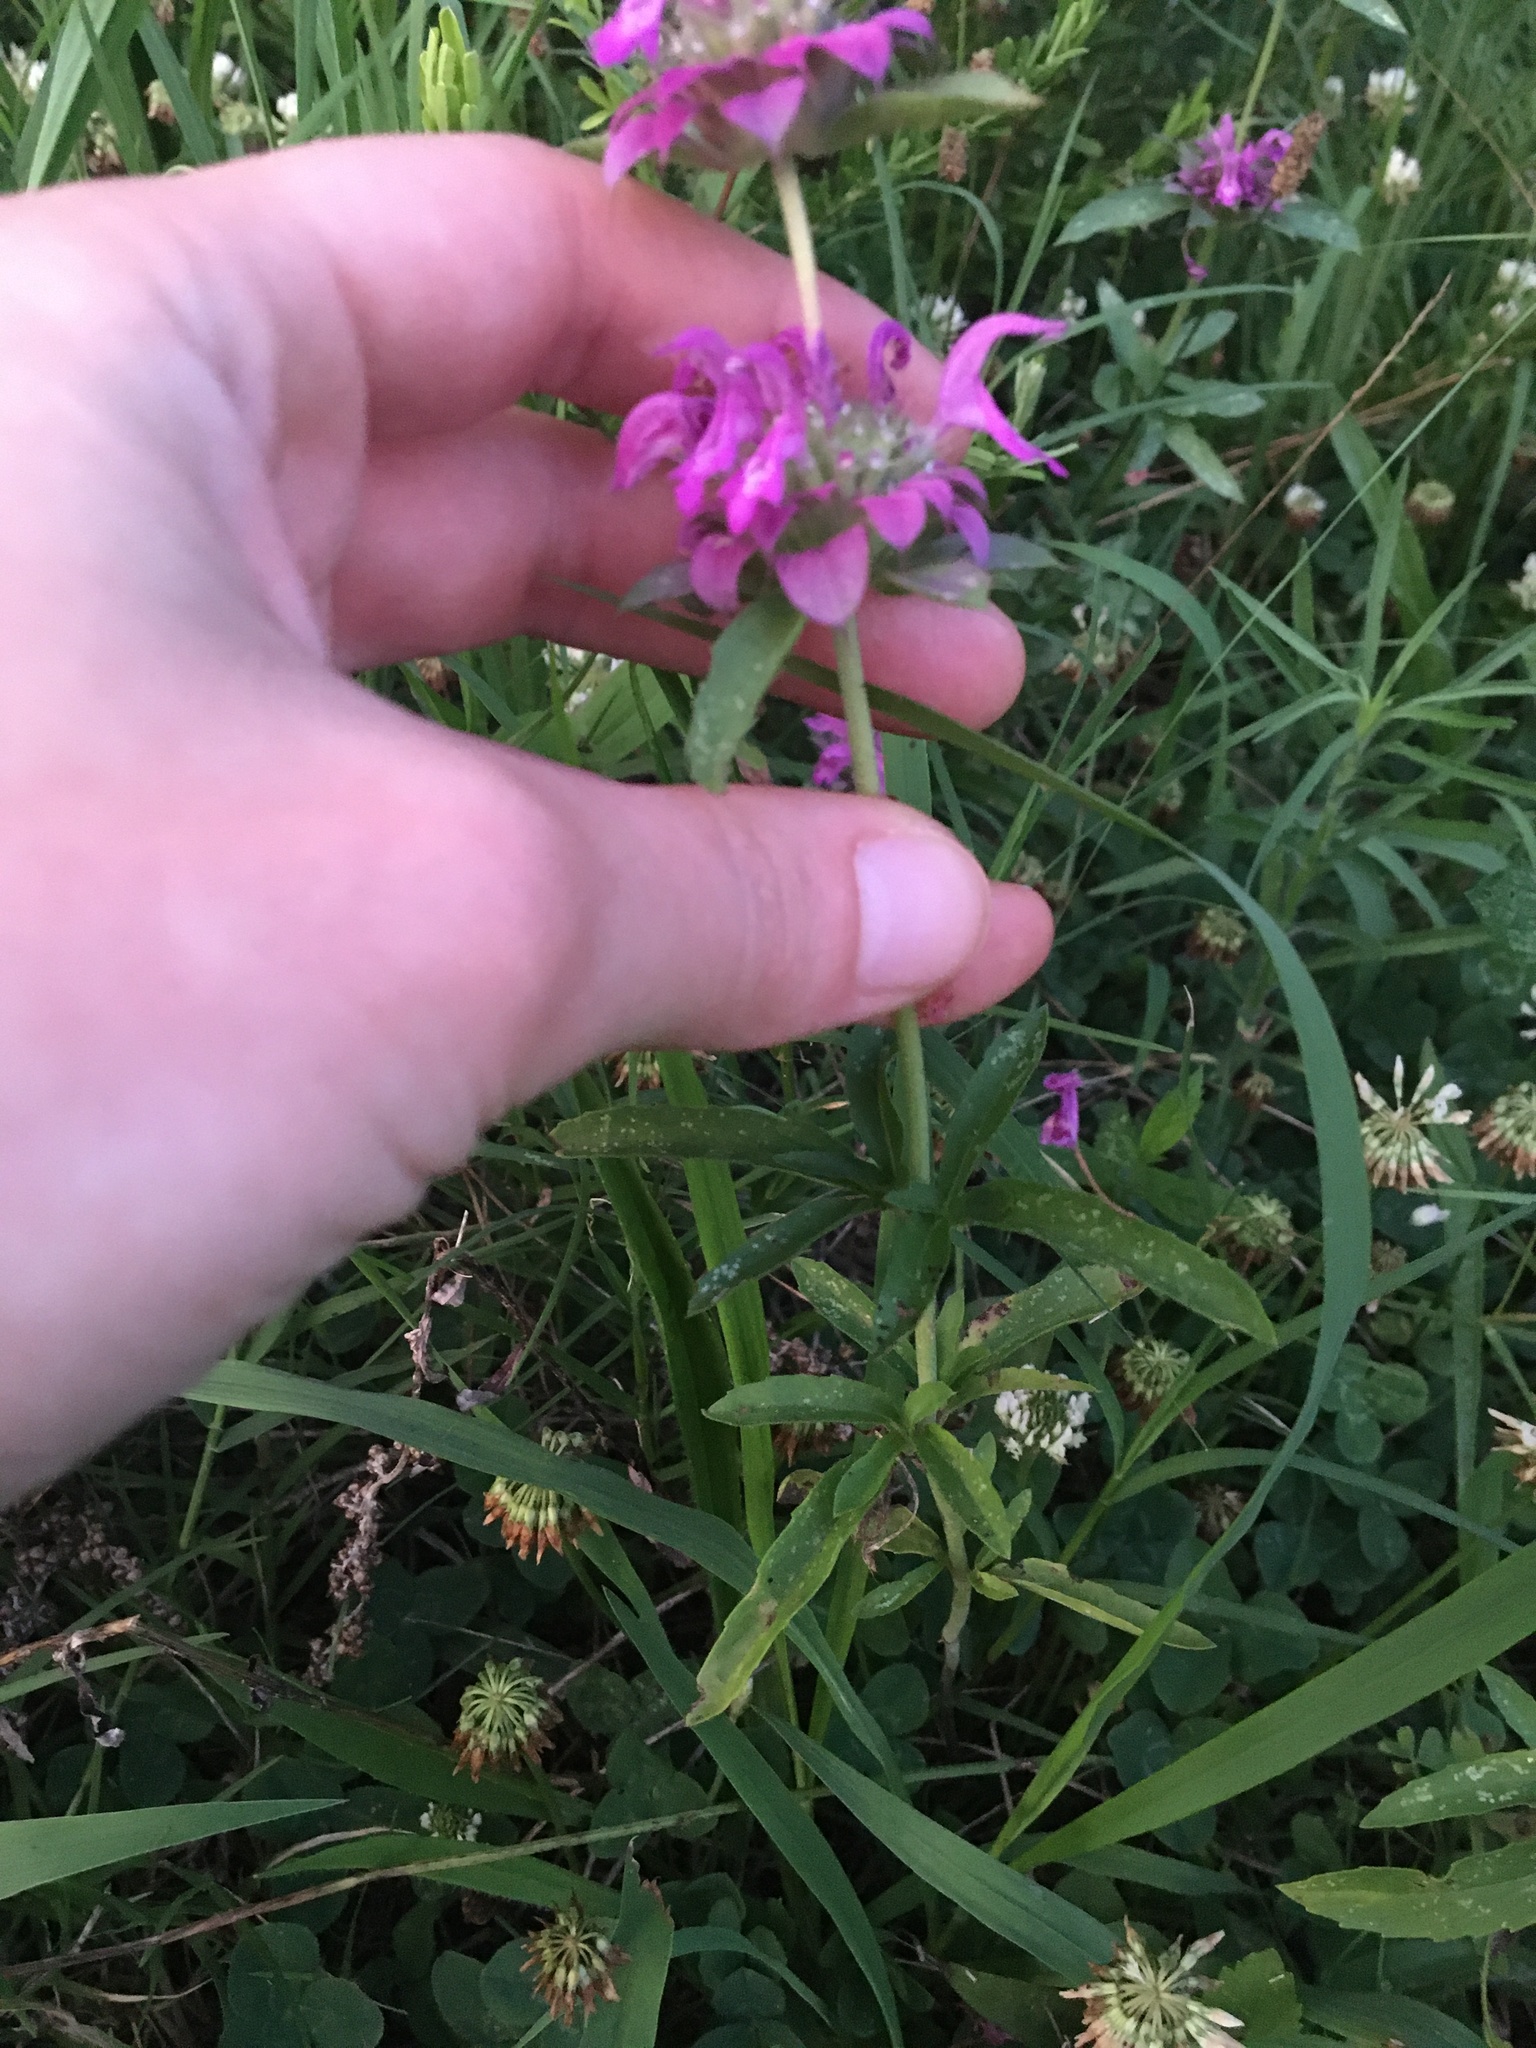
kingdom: Plantae
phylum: Tracheophyta
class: Magnoliopsida
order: Lamiales
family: Lamiaceae
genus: Monarda
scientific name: Monarda citriodora
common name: Lemon beebalm
